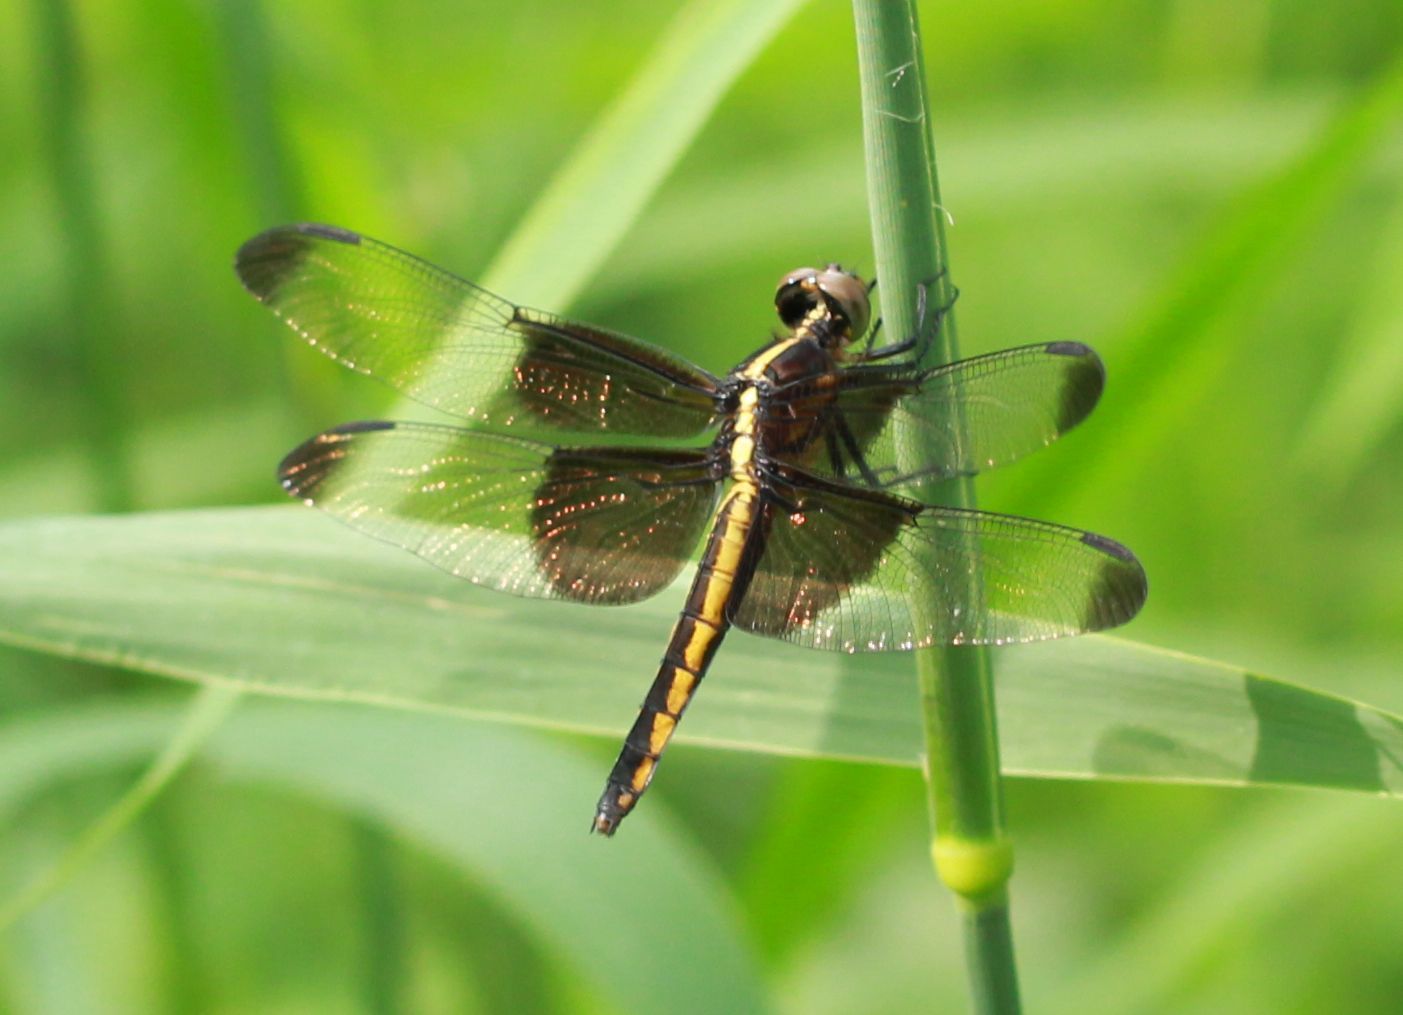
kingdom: Animalia
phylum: Arthropoda
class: Insecta
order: Odonata
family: Libellulidae
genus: Libellula
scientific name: Libellula luctuosa
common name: Widow skimmer
